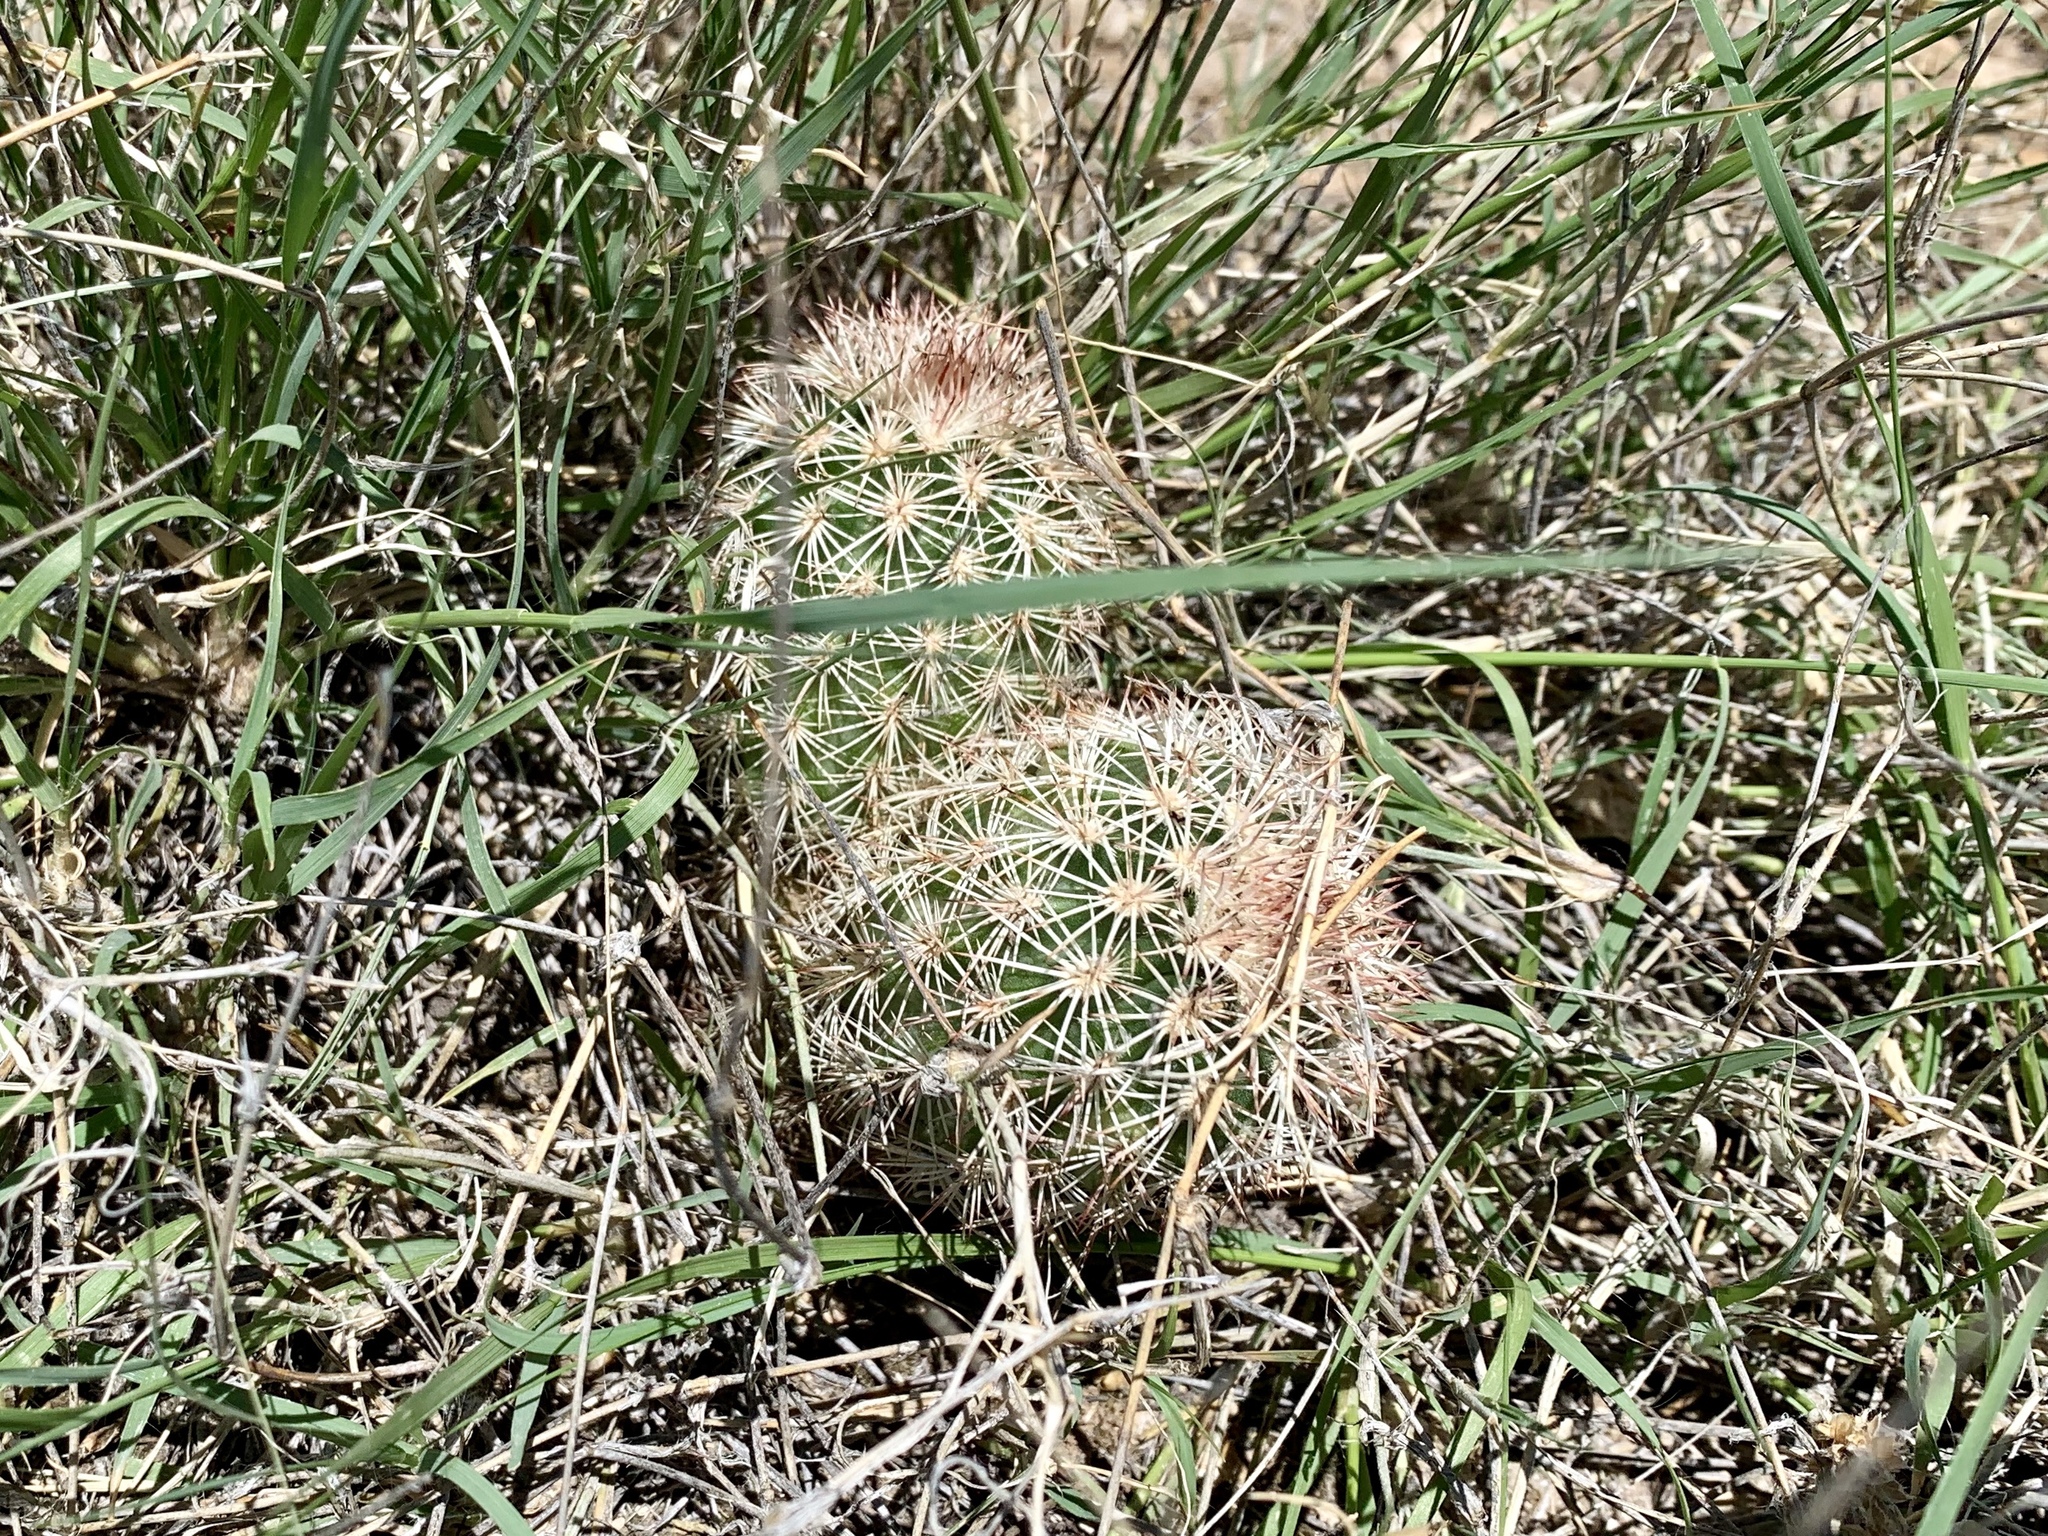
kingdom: Plantae
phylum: Tracheophyta
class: Magnoliopsida
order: Caryophyllales
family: Cactaceae
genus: Echinocereus
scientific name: Echinocereus dasyacanthus
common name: Spiny hedgehog cactus
